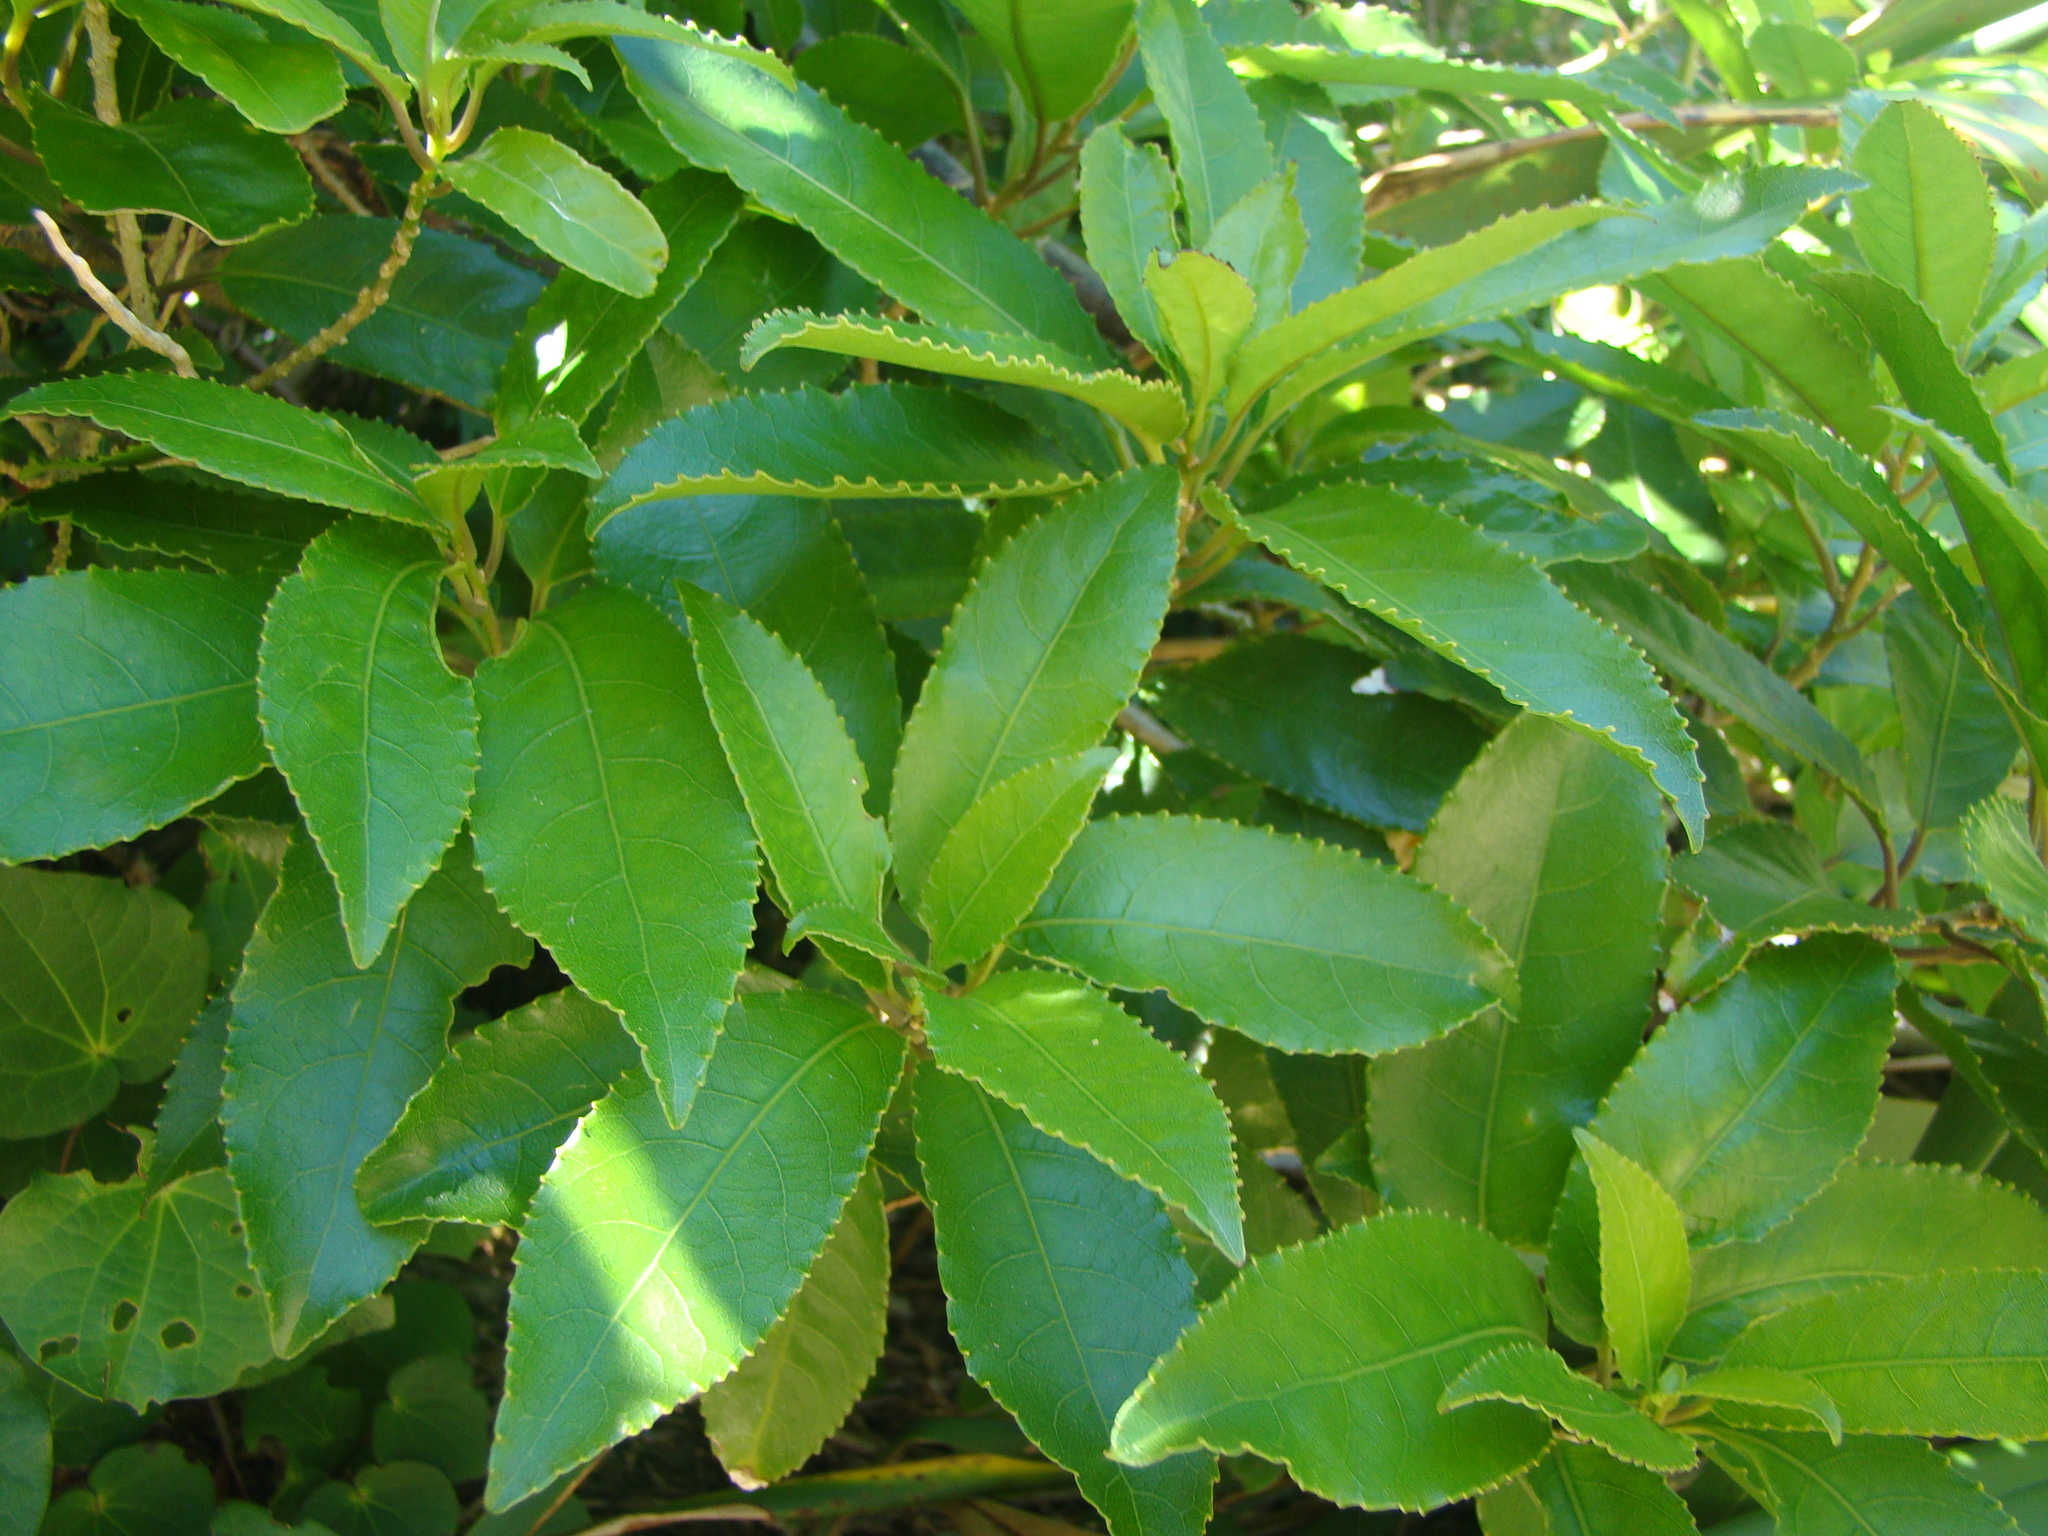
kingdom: Plantae
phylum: Tracheophyta
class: Magnoliopsida
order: Malpighiales
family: Violaceae
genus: Melicytus
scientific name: Melicytus ramiflorus
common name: Mahoe
